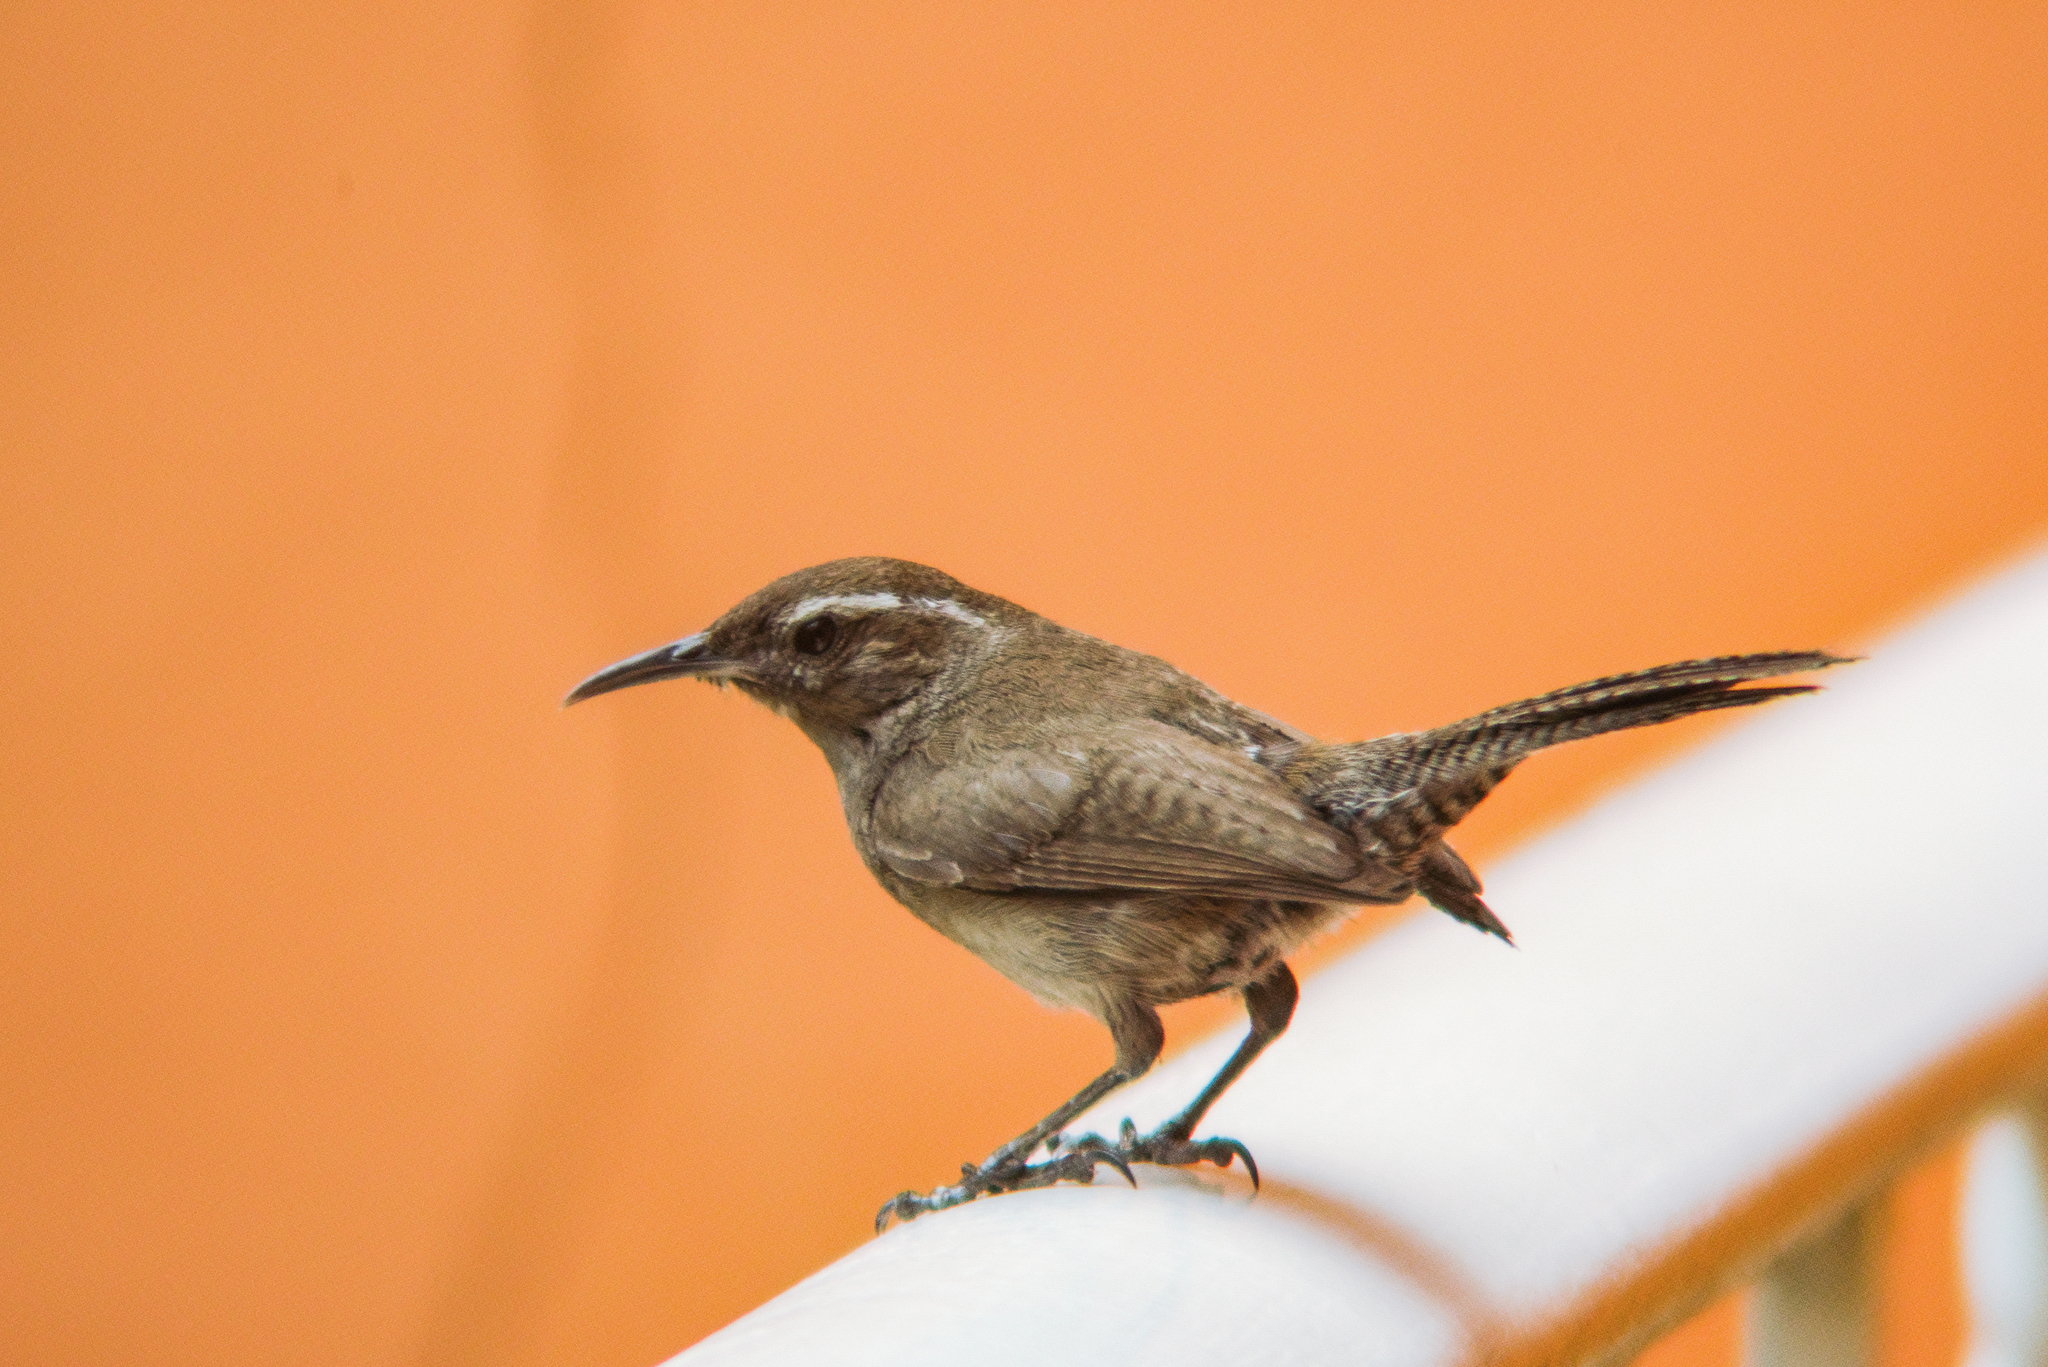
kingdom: Animalia
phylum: Chordata
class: Aves
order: Passeriformes
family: Troglodytidae
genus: Thryomanes
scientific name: Thryomanes bewickii
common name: Bewick's wren
